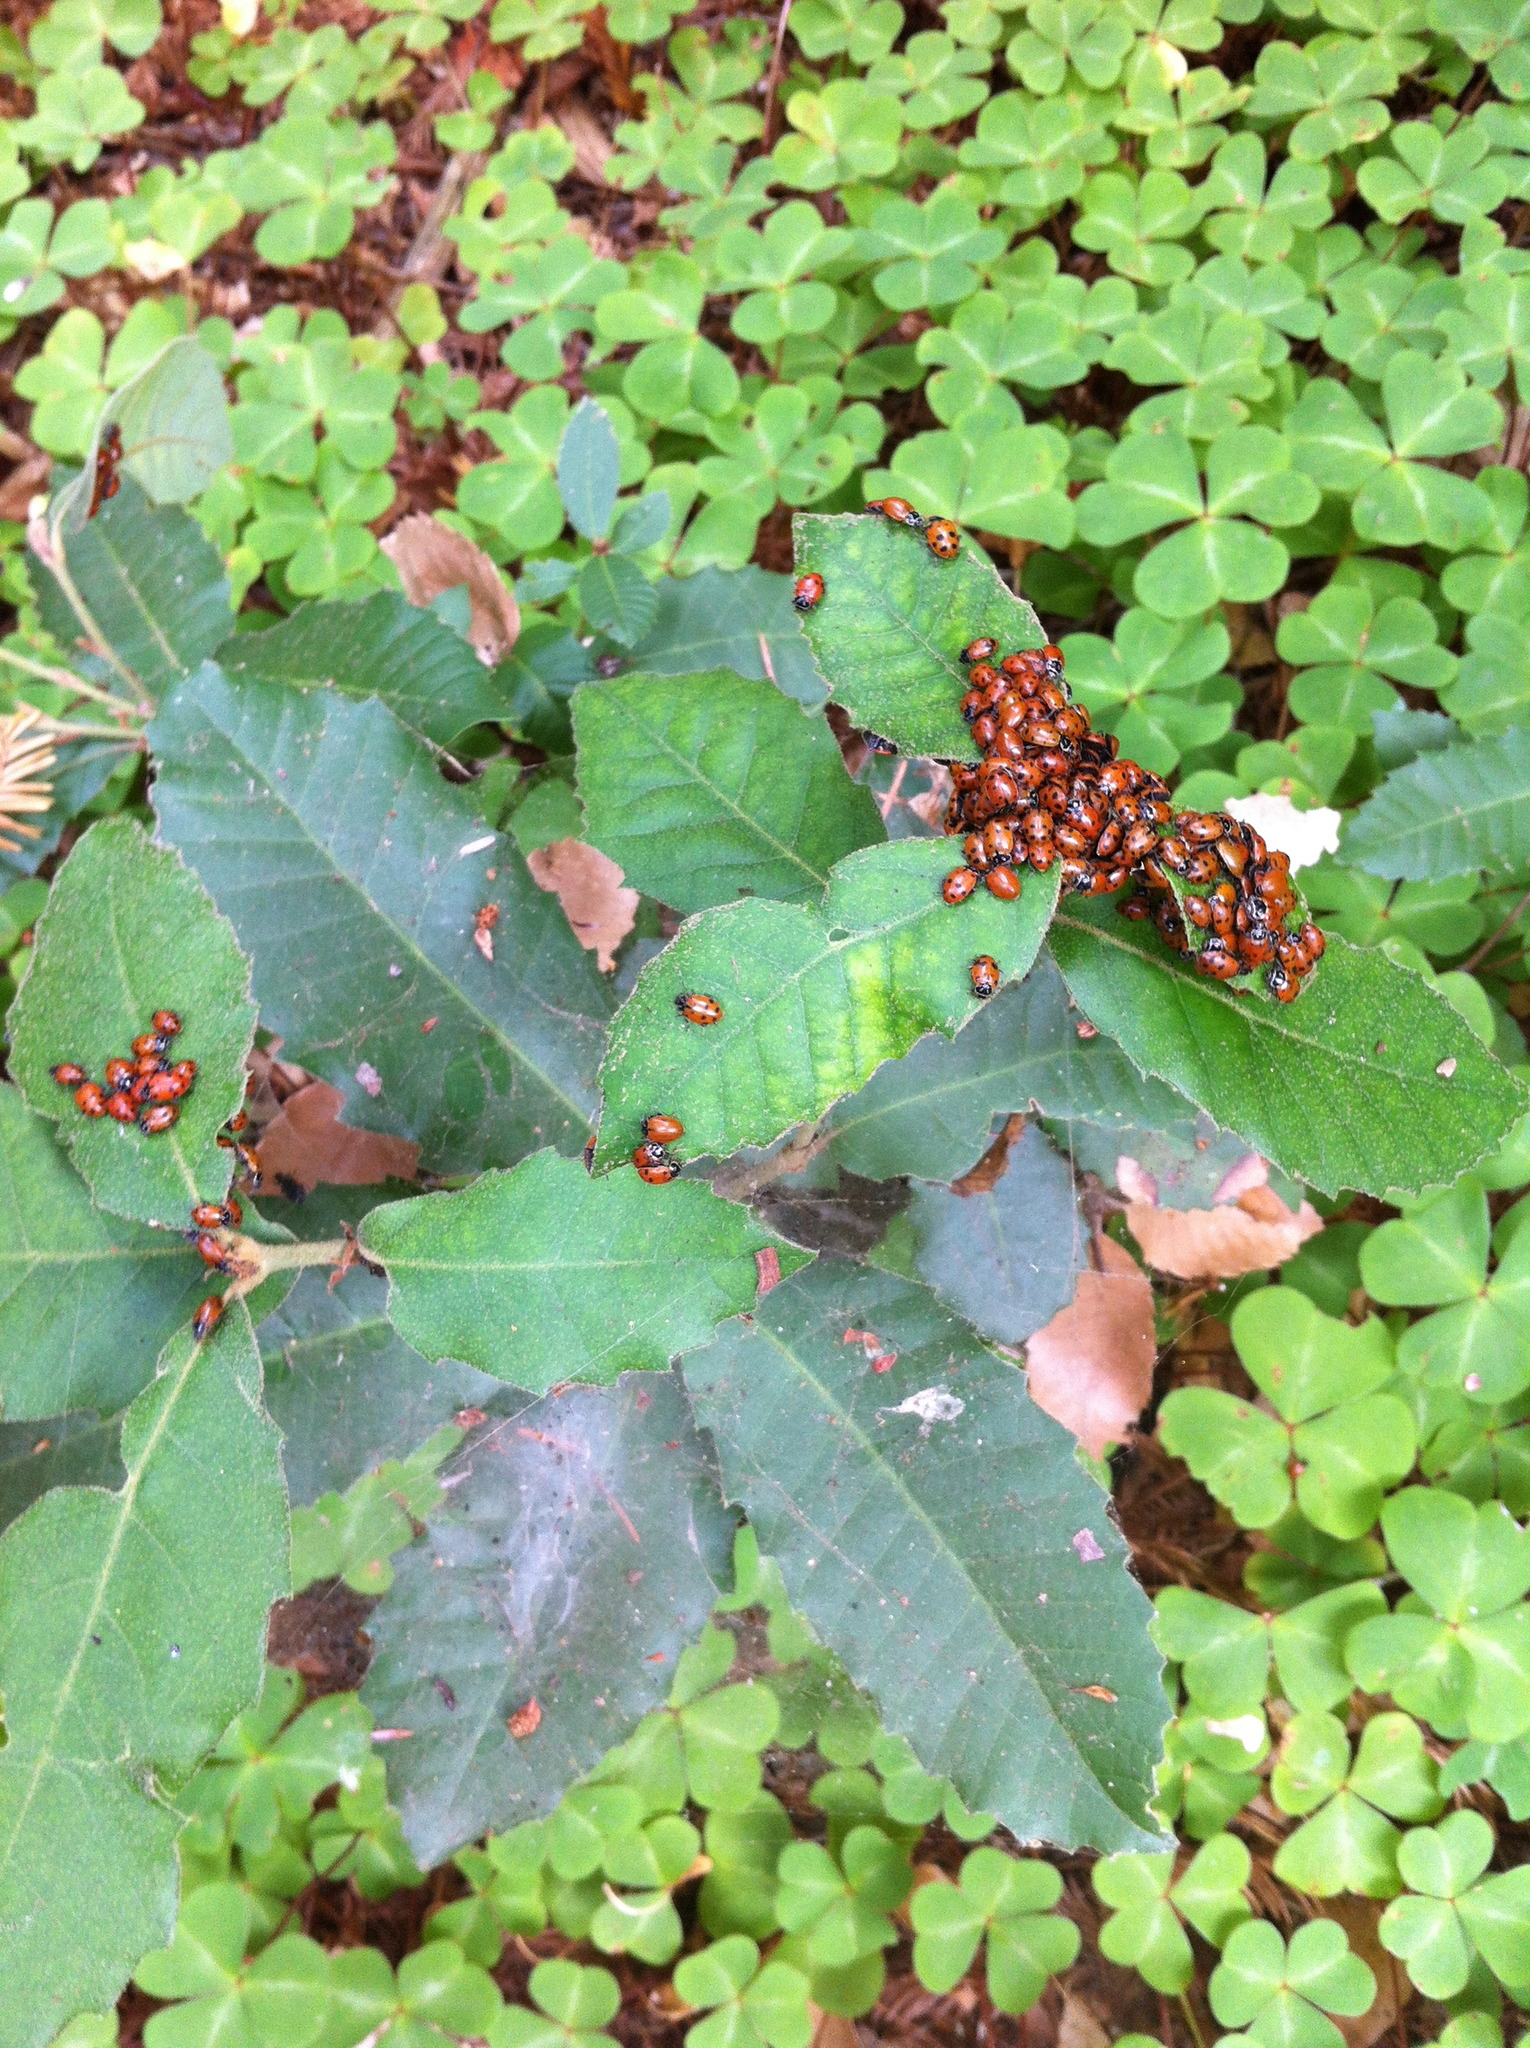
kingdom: Animalia
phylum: Arthropoda
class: Insecta
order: Coleoptera
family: Coccinellidae
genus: Hippodamia
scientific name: Hippodamia convergens
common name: Convergent lady beetle
